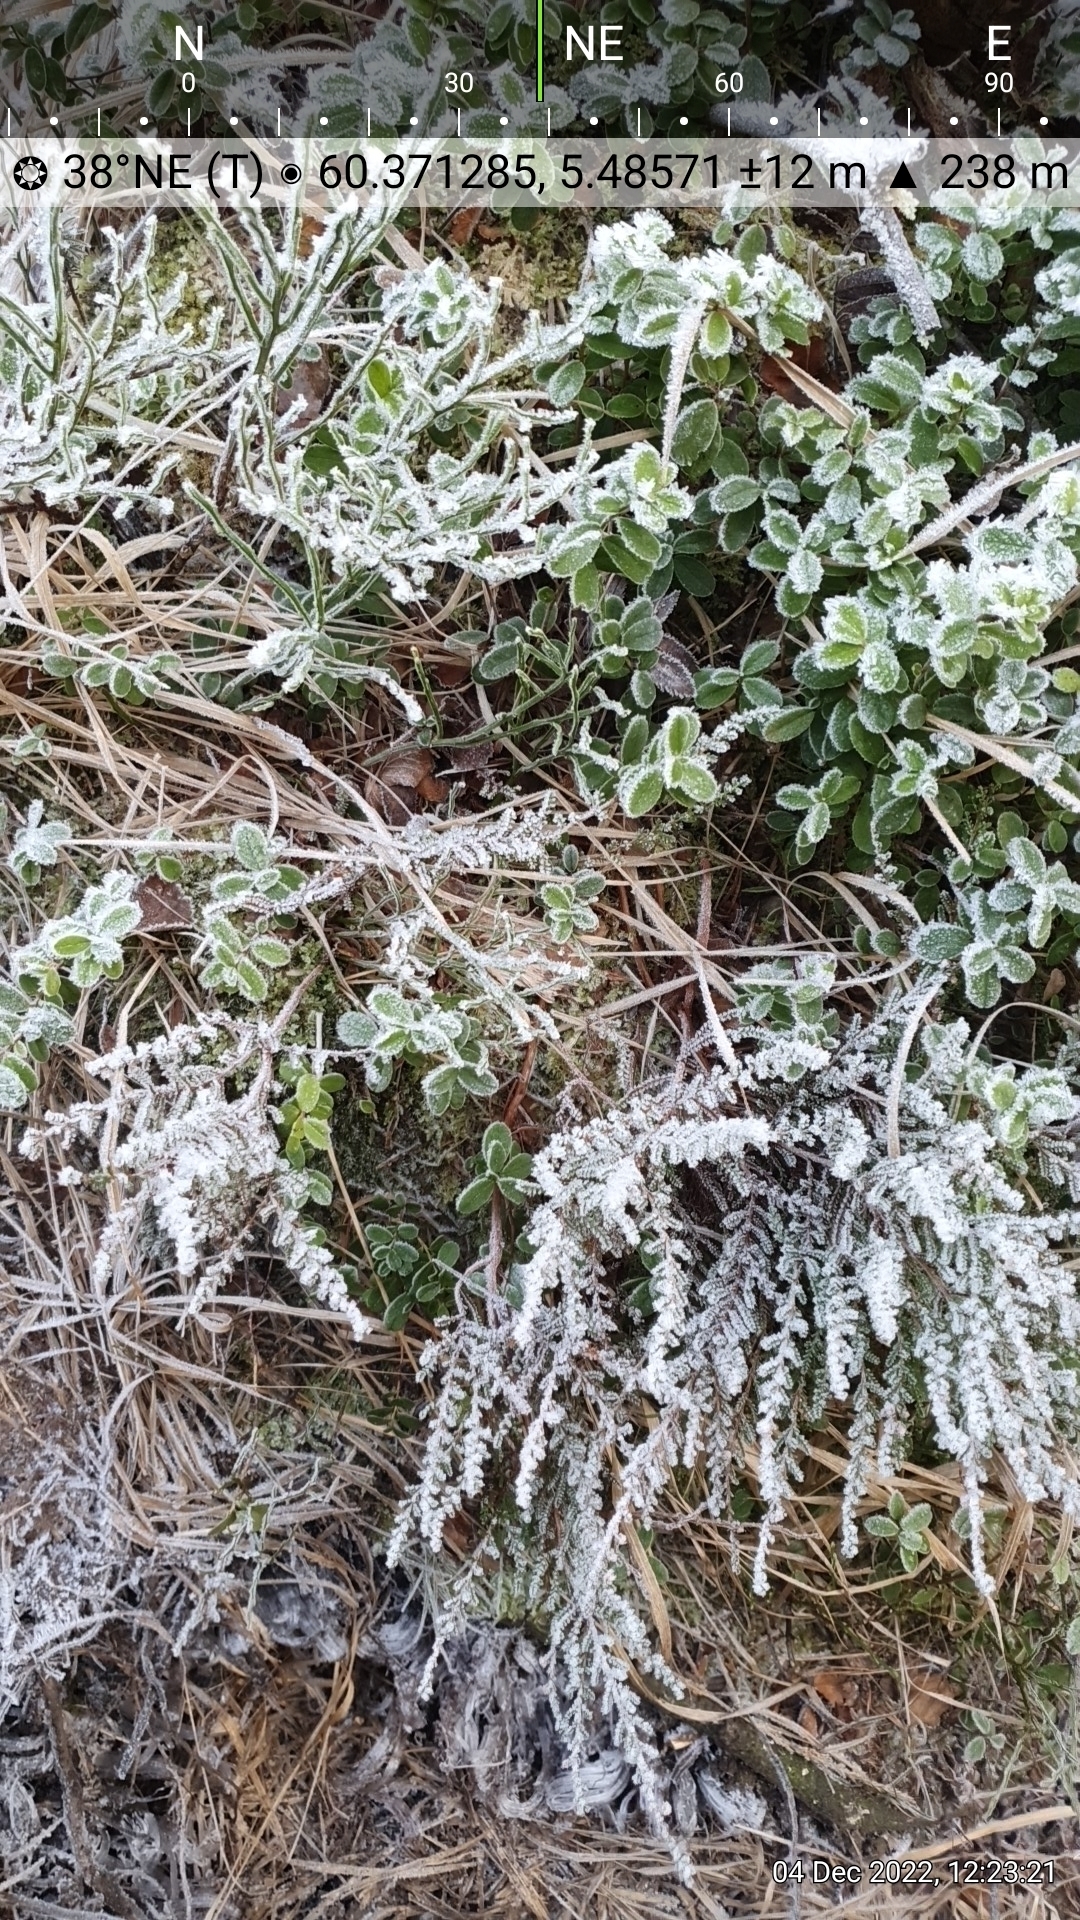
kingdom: Plantae
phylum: Tracheophyta
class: Magnoliopsida
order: Ericales
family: Ericaceae
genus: Calluna
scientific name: Calluna vulgaris
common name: Heather
